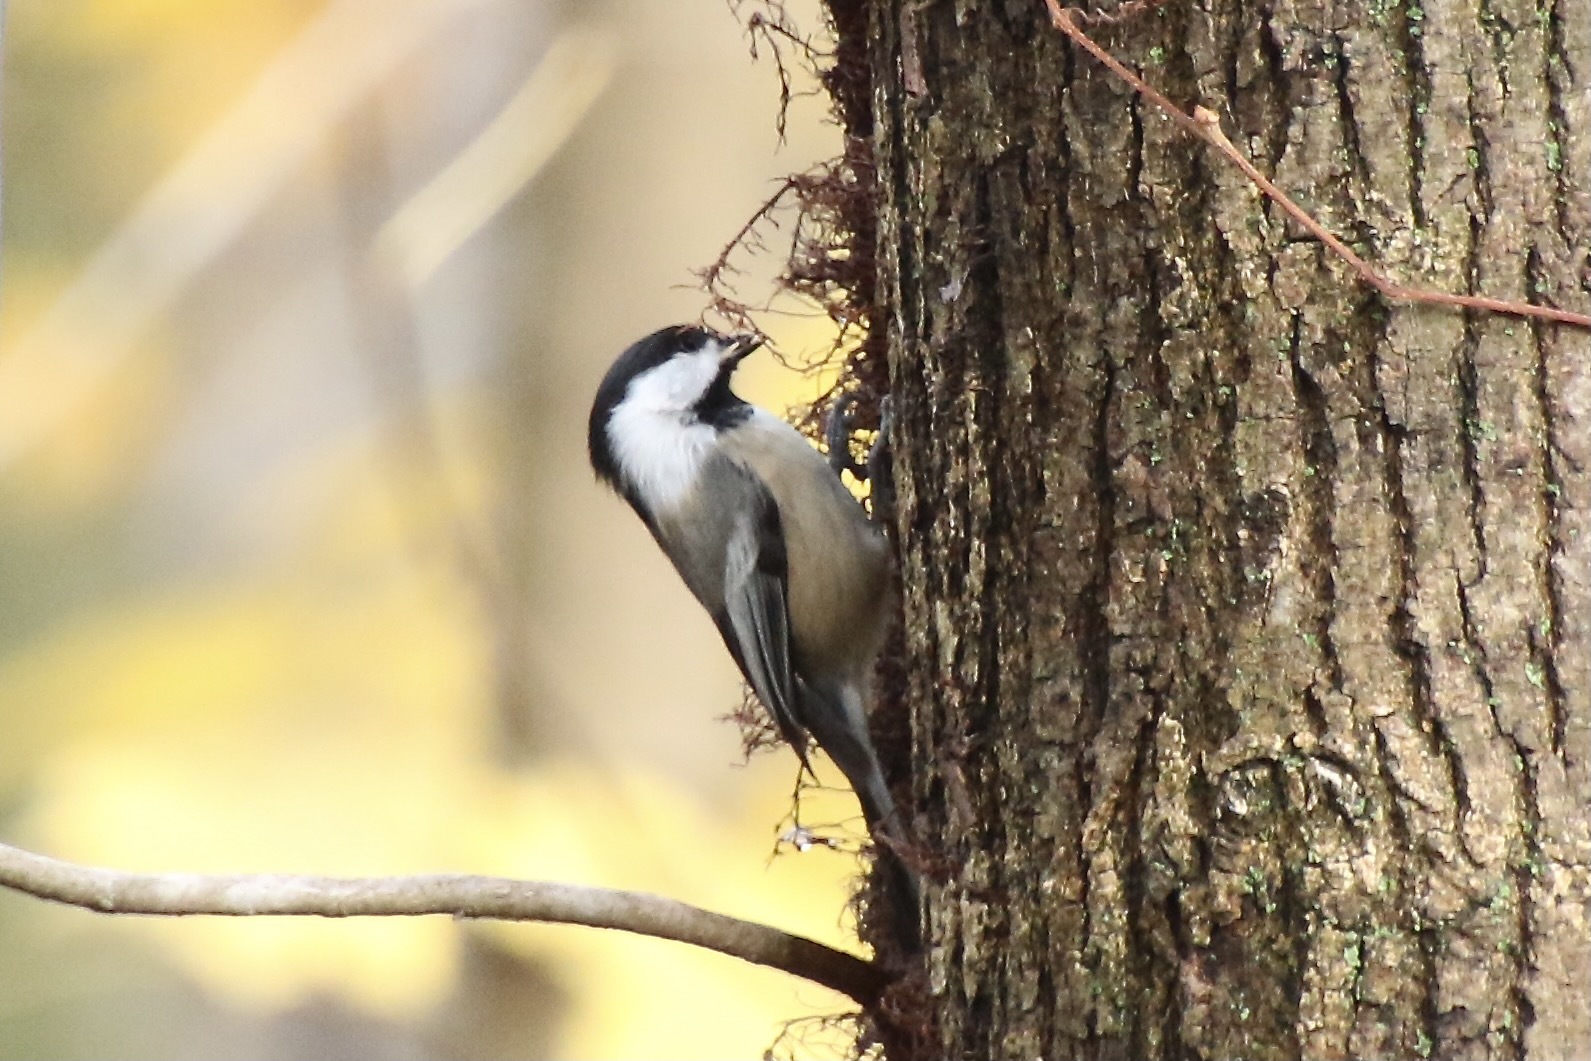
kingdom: Animalia
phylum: Chordata
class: Aves
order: Passeriformes
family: Paridae
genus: Poecile
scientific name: Poecile atricapillus
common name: Black-capped chickadee
